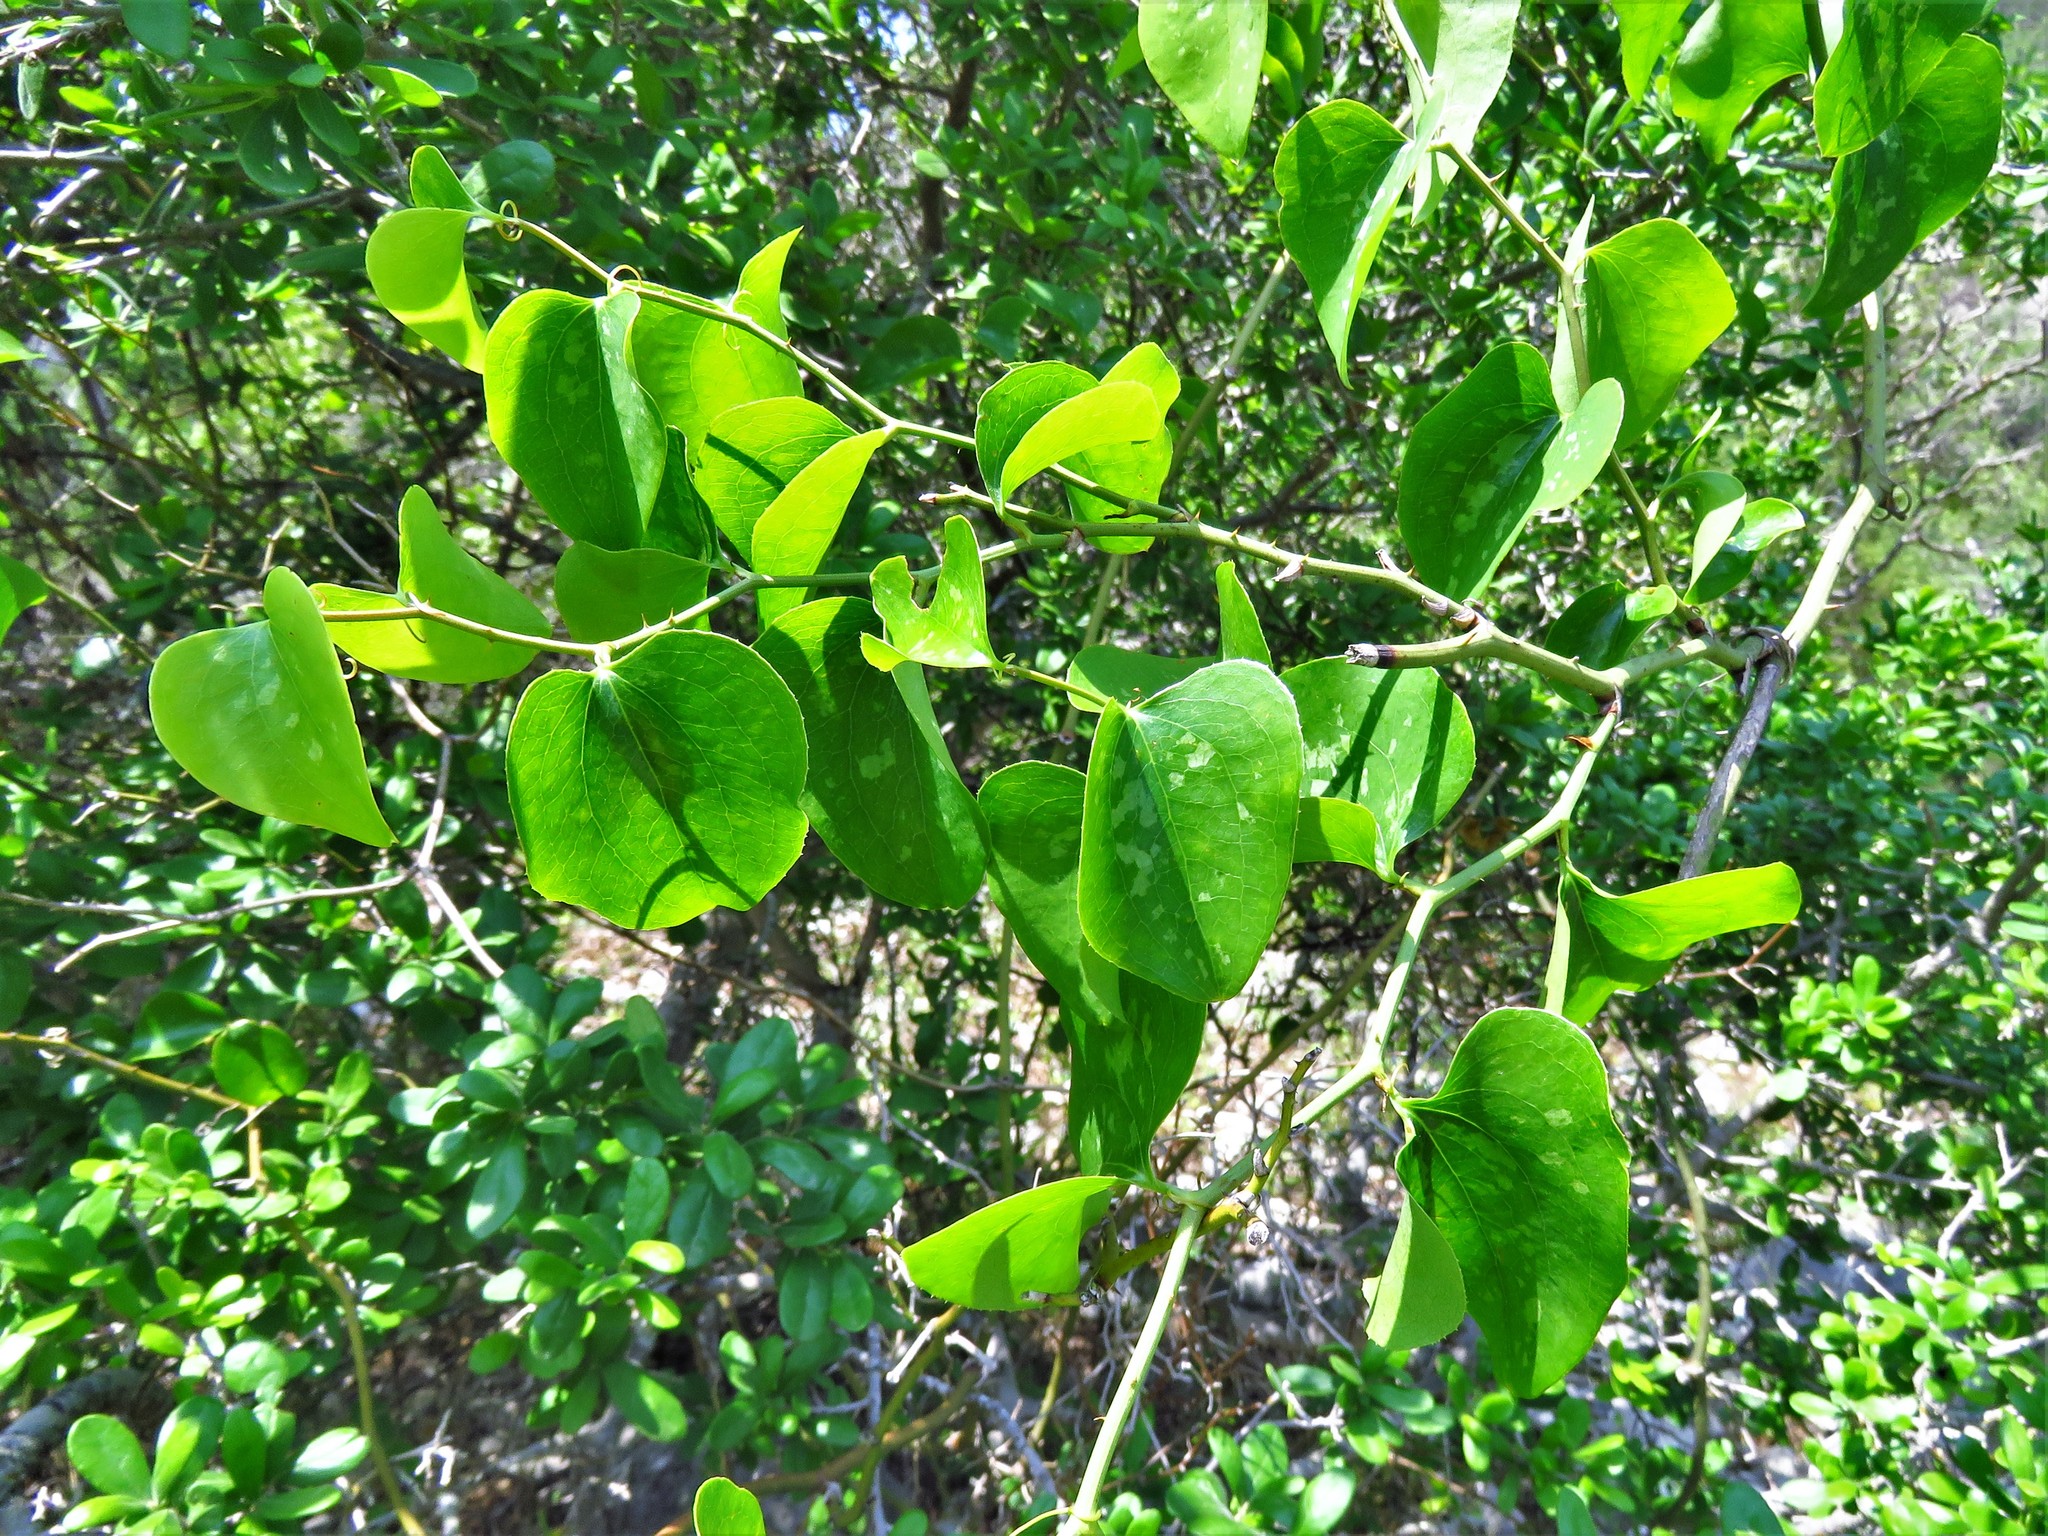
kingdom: Plantae
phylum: Tracheophyta
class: Liliopsida
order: Liliales
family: Smilacaceae
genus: Smilax
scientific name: Smilax bona-nox
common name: Catbrier
